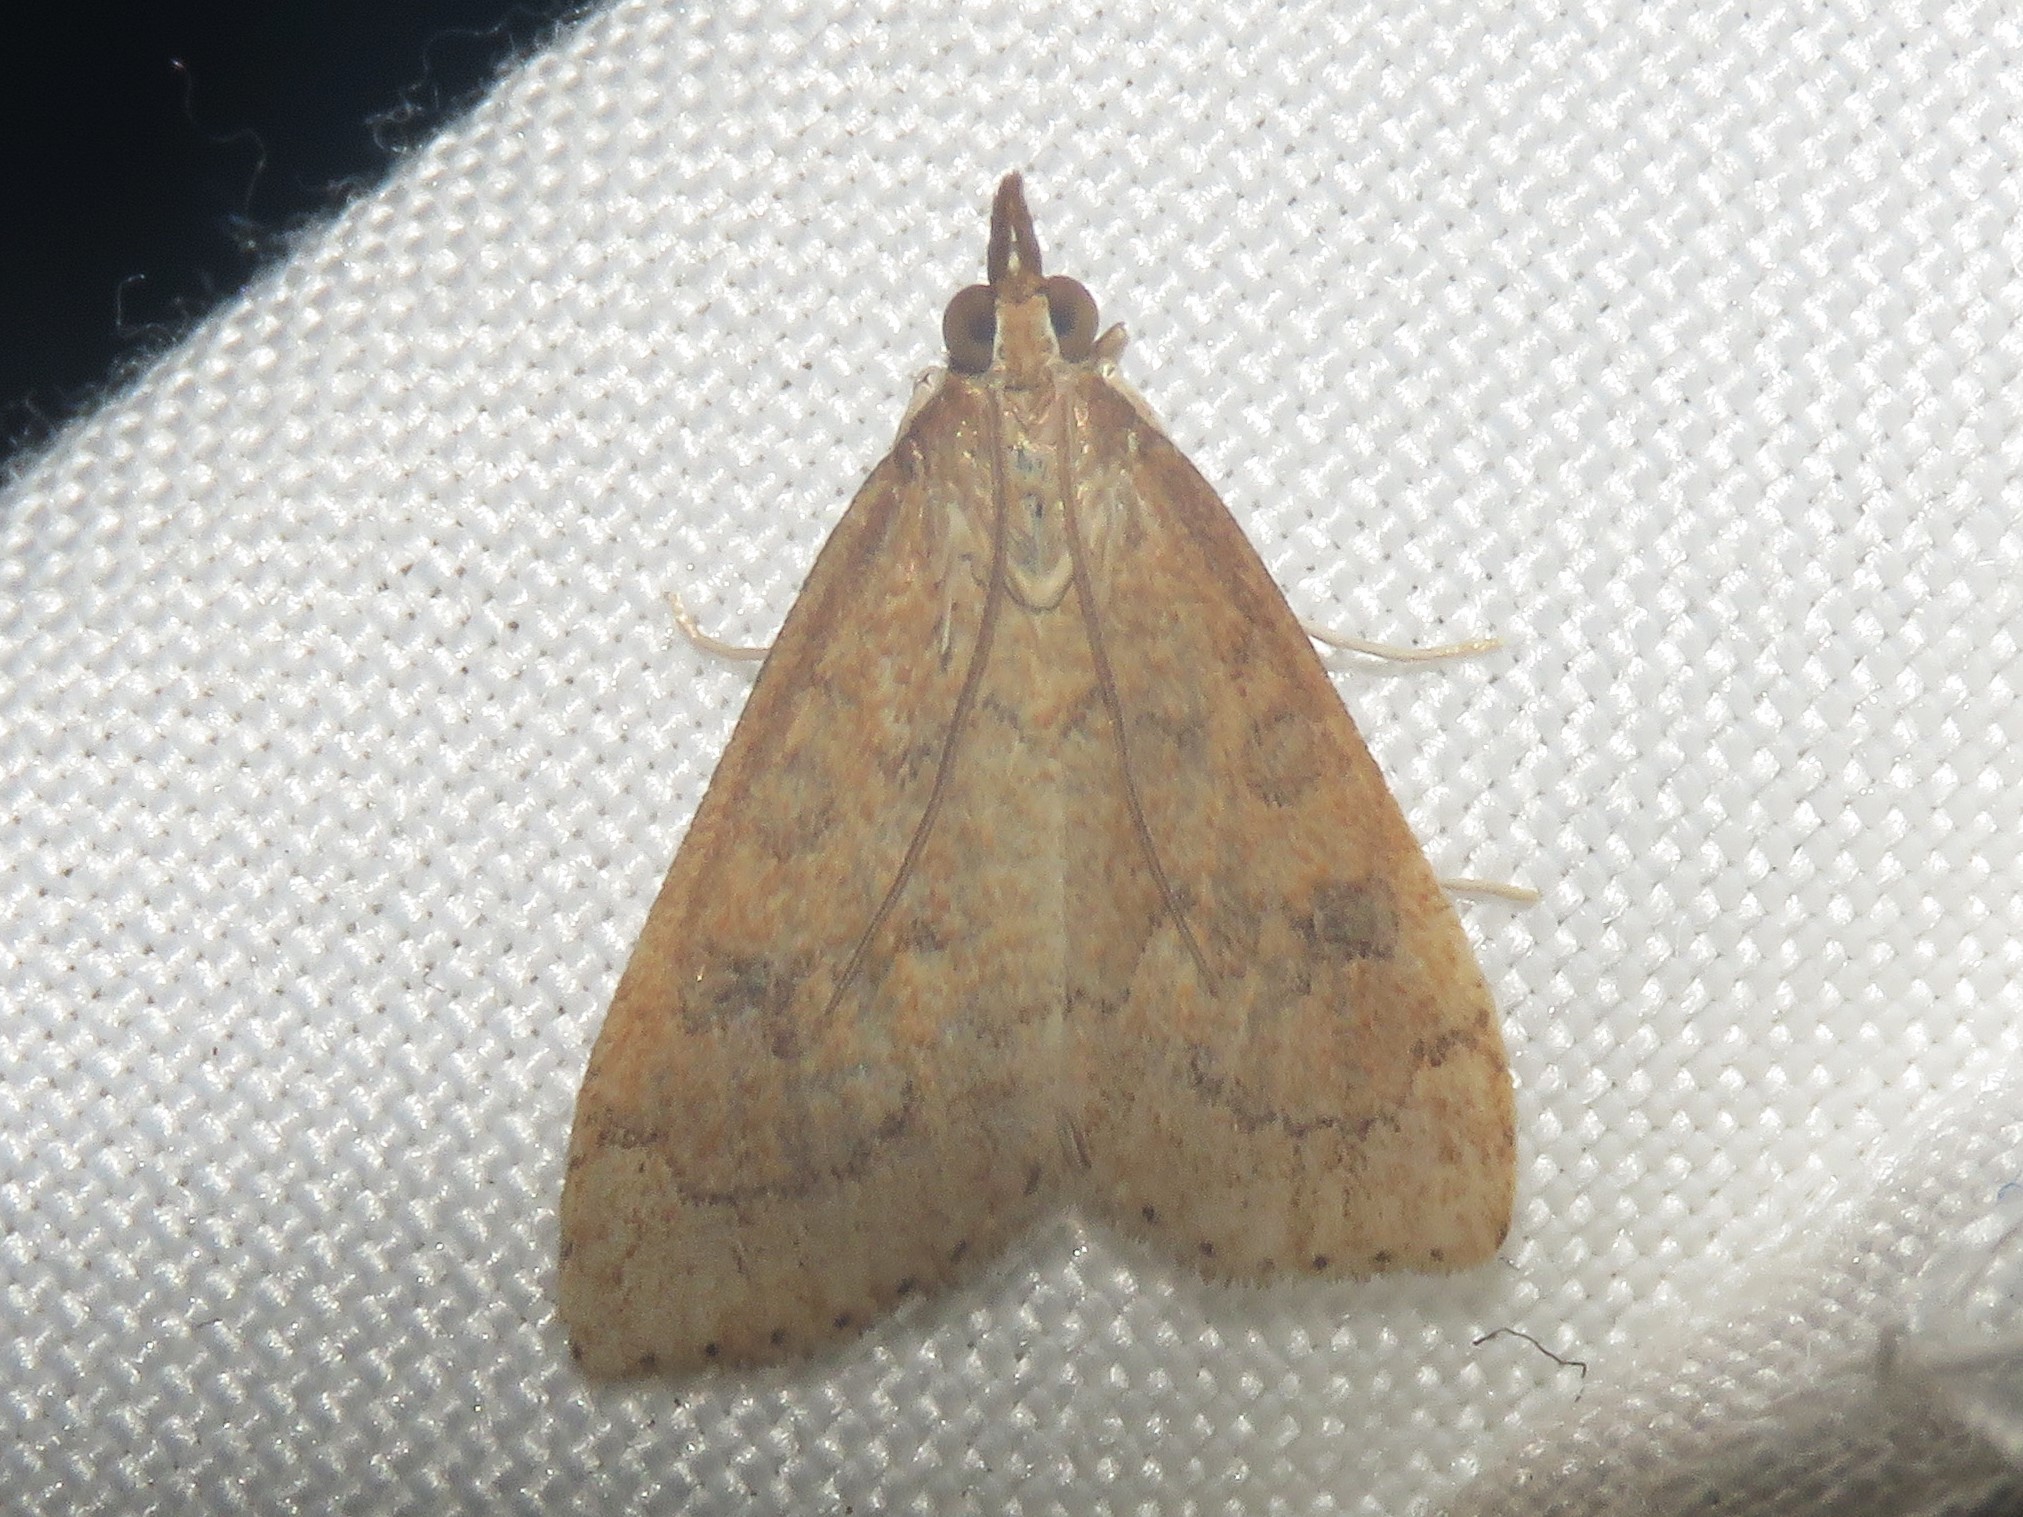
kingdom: Animalia
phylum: Arthropoda
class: Insecta
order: Lepidoptera
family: Crambidae
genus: Udea
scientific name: Udea rubigalis
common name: Celery leaftier moth
